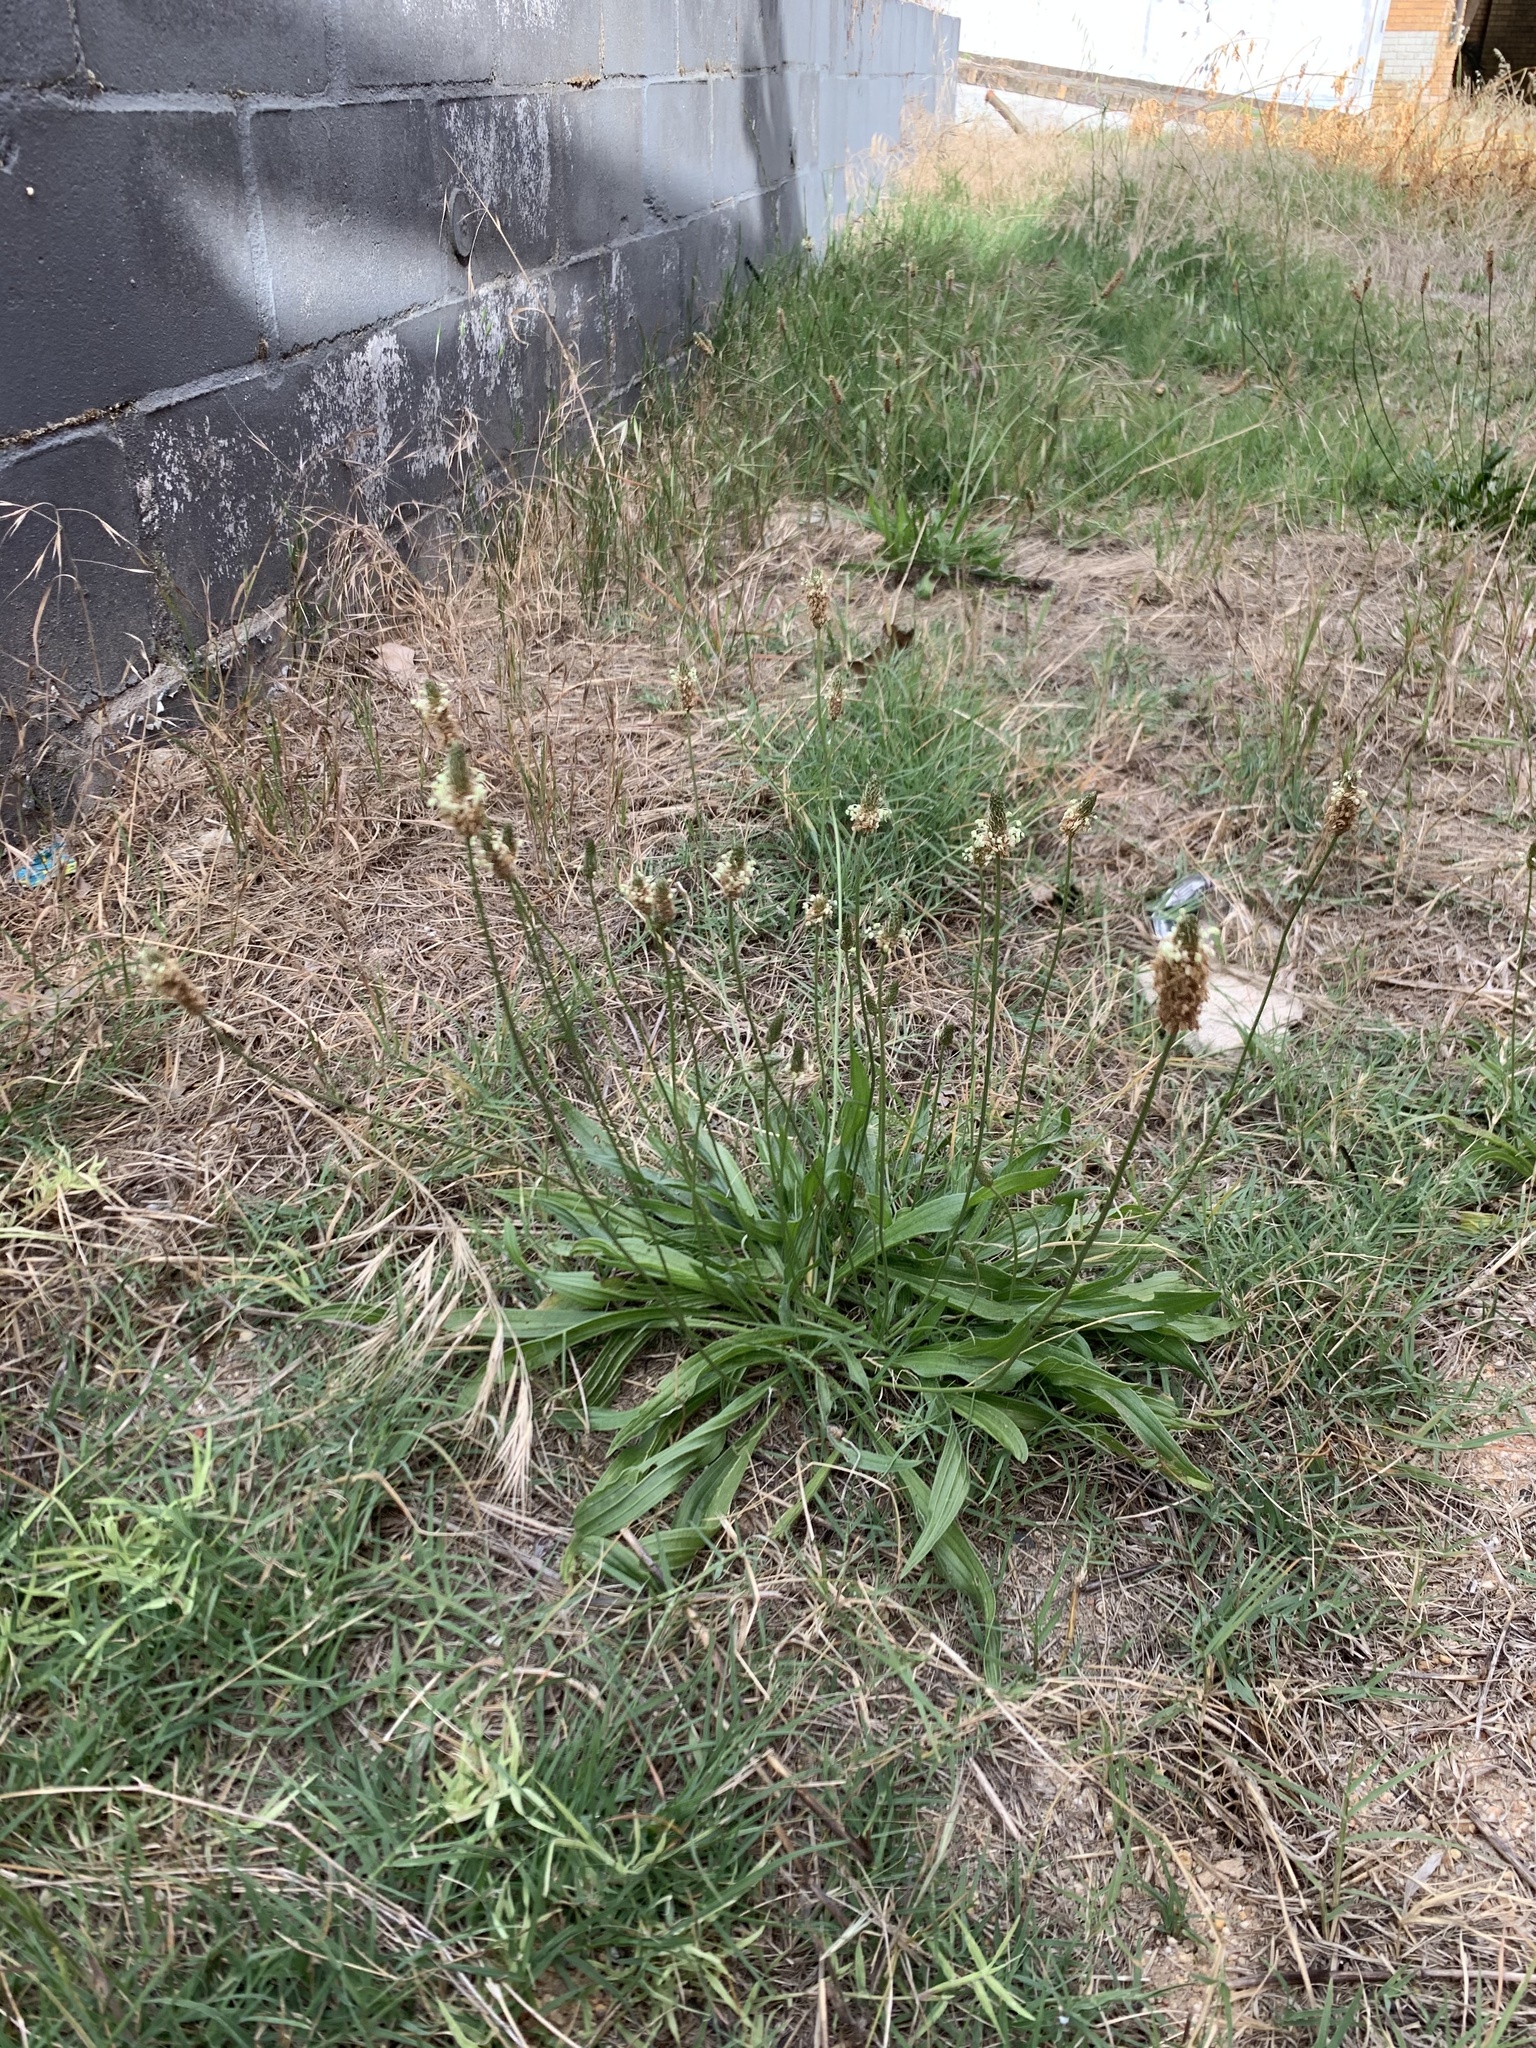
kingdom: Plantae
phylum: Tracheophyta
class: Magnoliopsida
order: Lamiales
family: Plantaginaceae
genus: Plantago
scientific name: Plantago lanceolata
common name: Ribwort plantain
